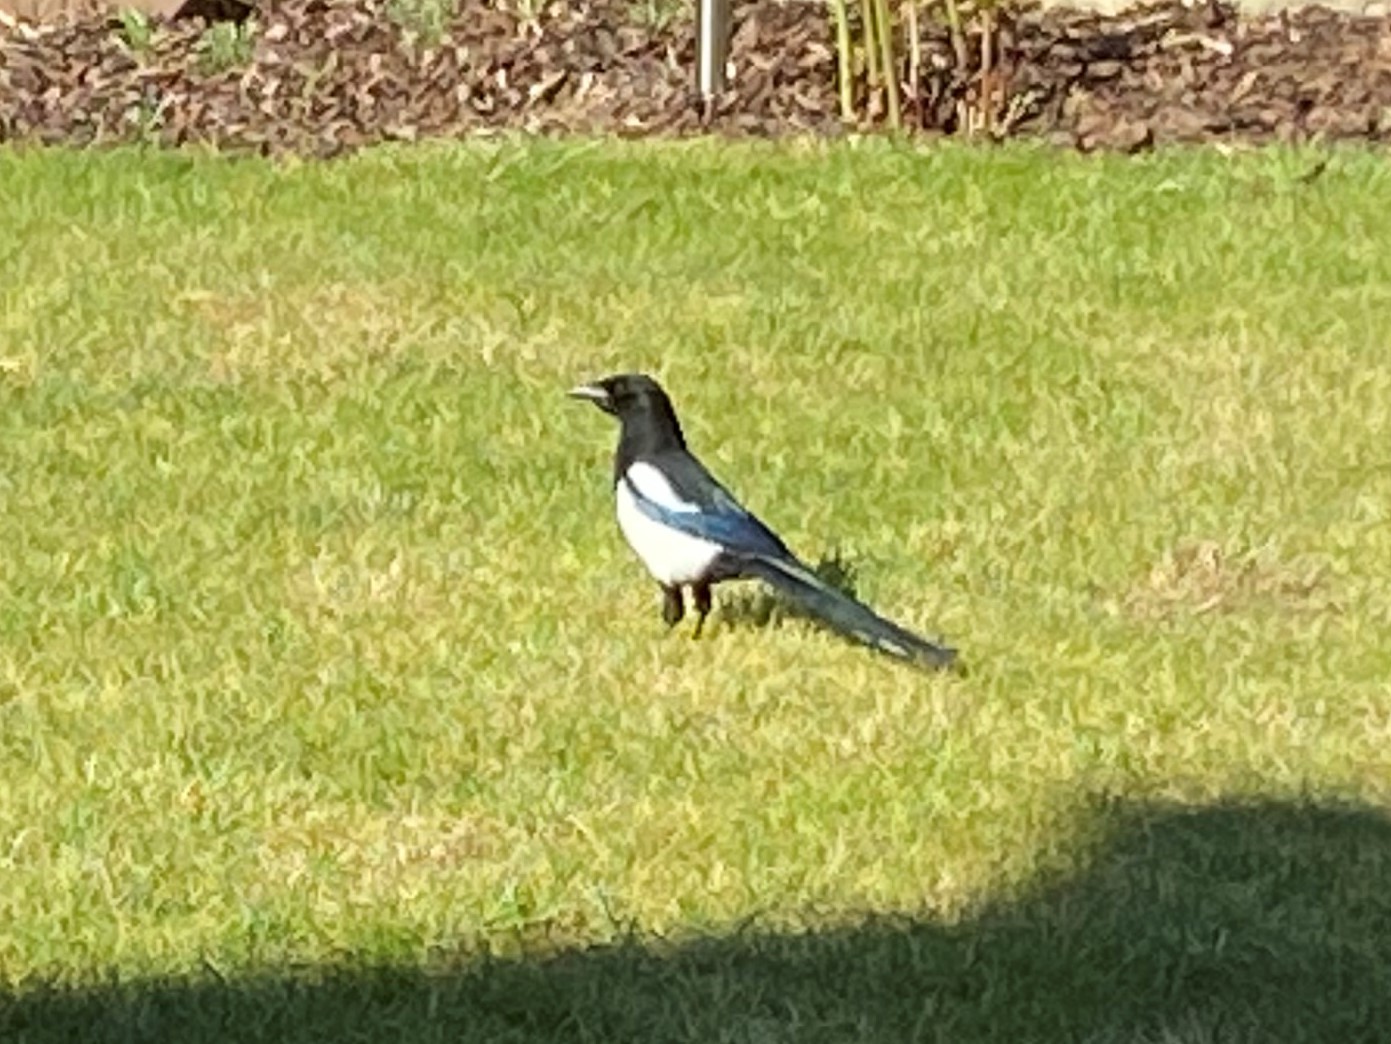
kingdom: Animalia
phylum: Chordata
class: Aves
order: Passeriformes
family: Corvidae
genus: Pica
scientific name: Pica pica
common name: Eurasian magpie
